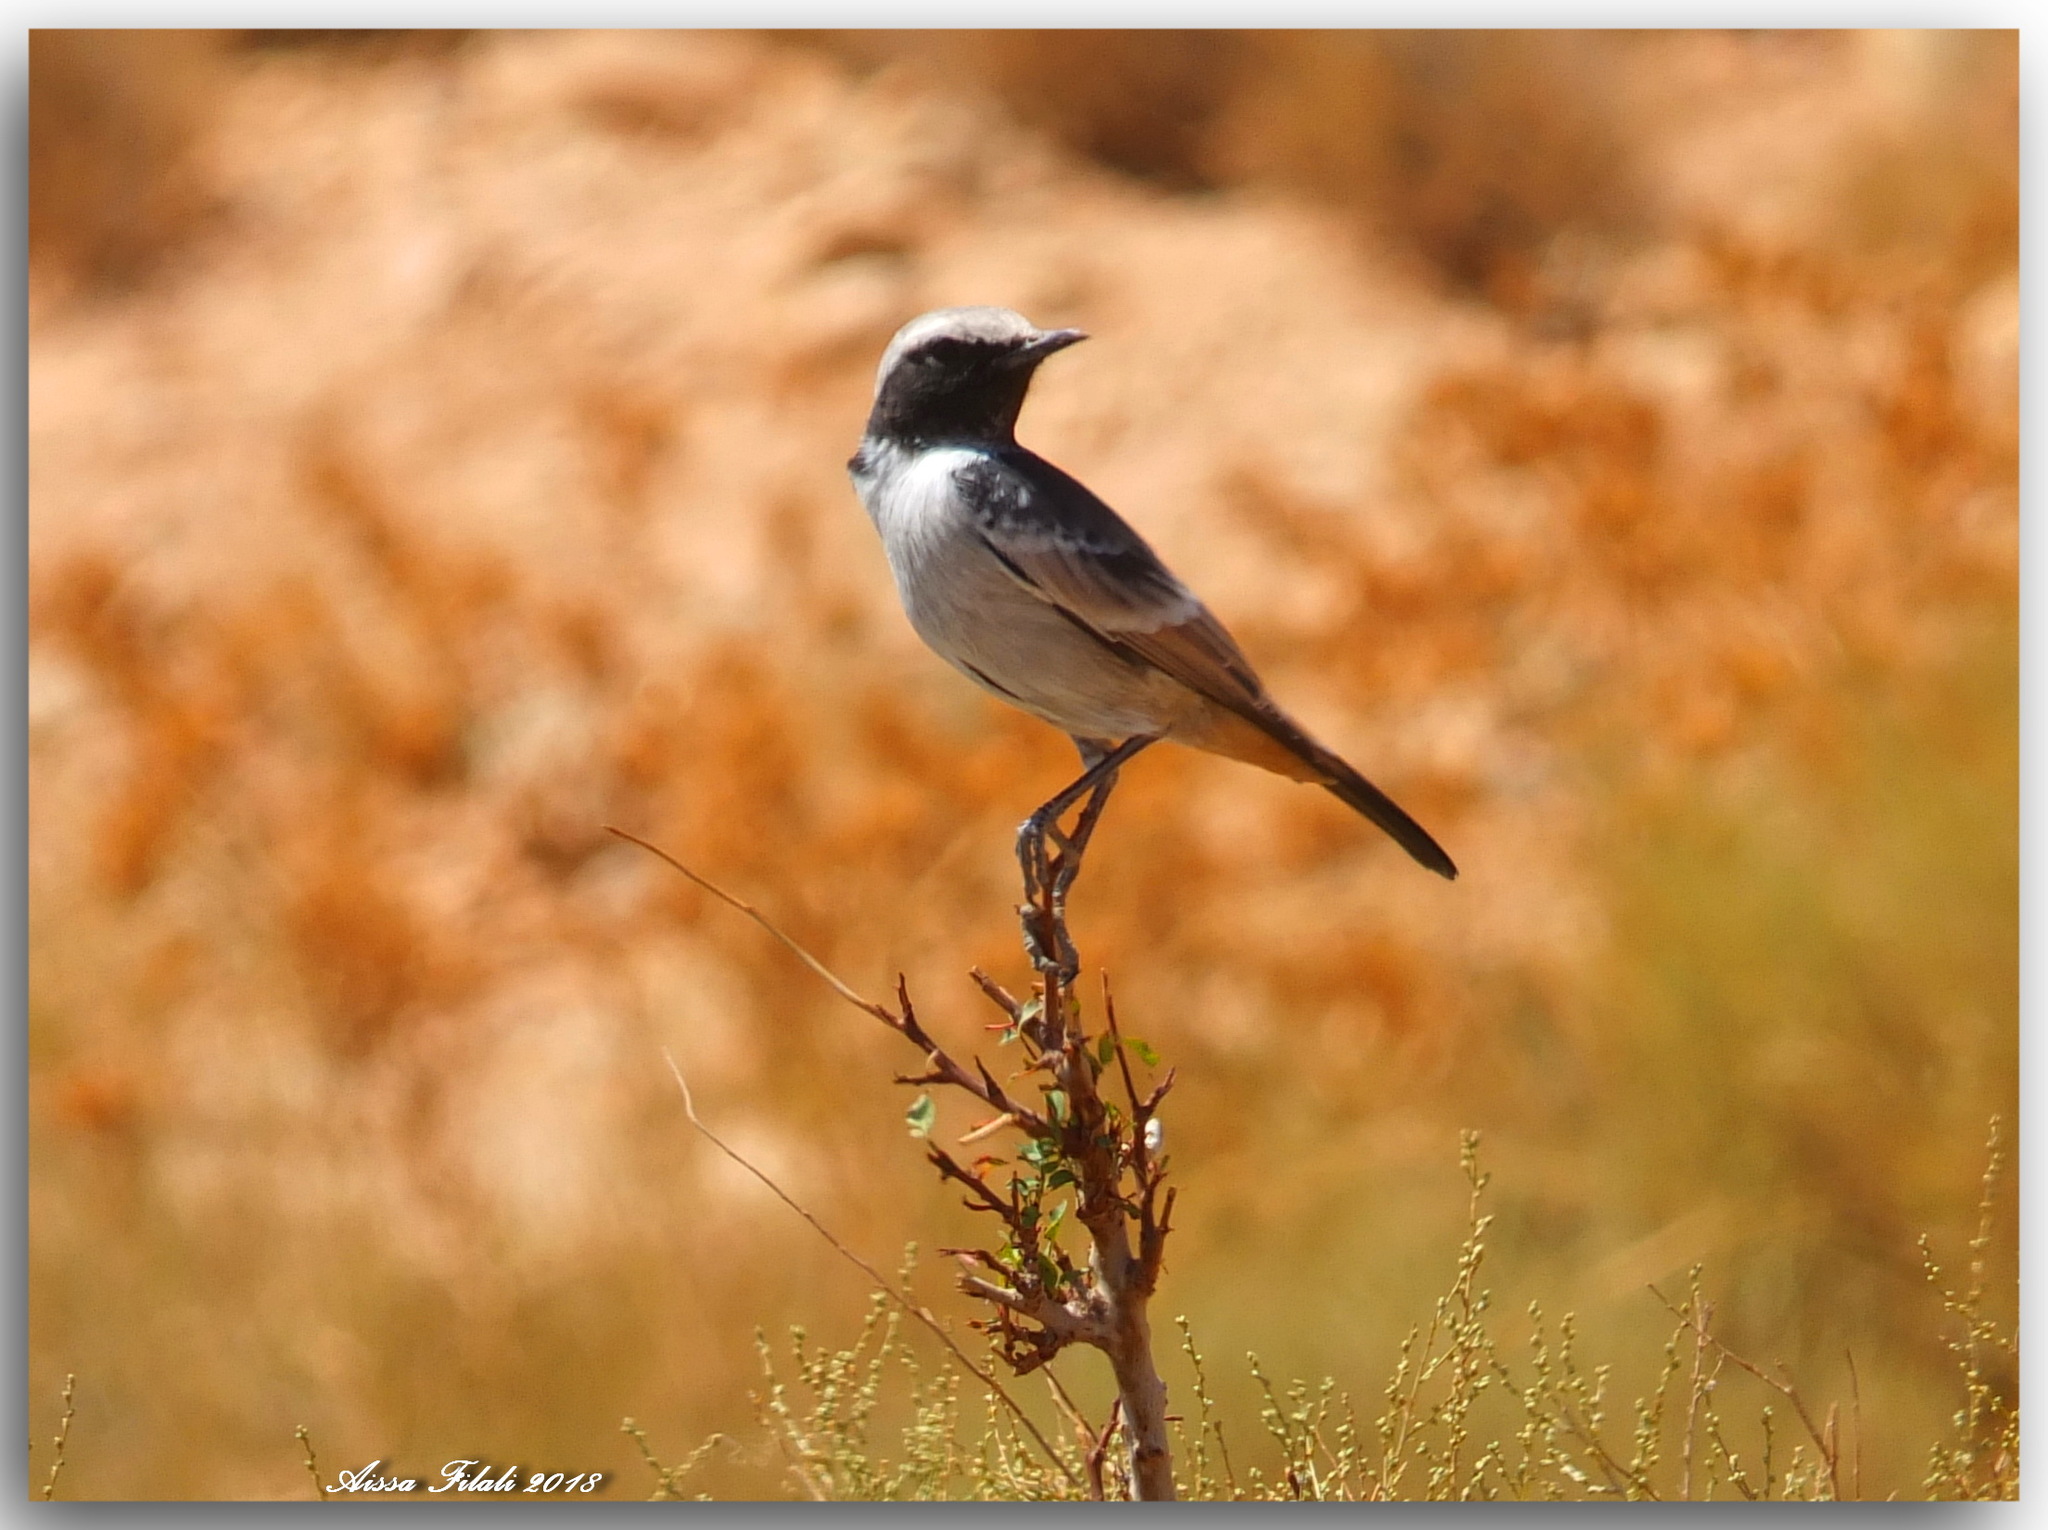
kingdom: Animalia
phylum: Chordata
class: Aves
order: Passeriformes
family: Muscicapidae
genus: Oenanthe
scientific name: Oenanthe moesta
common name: Red-rumped wheatear
